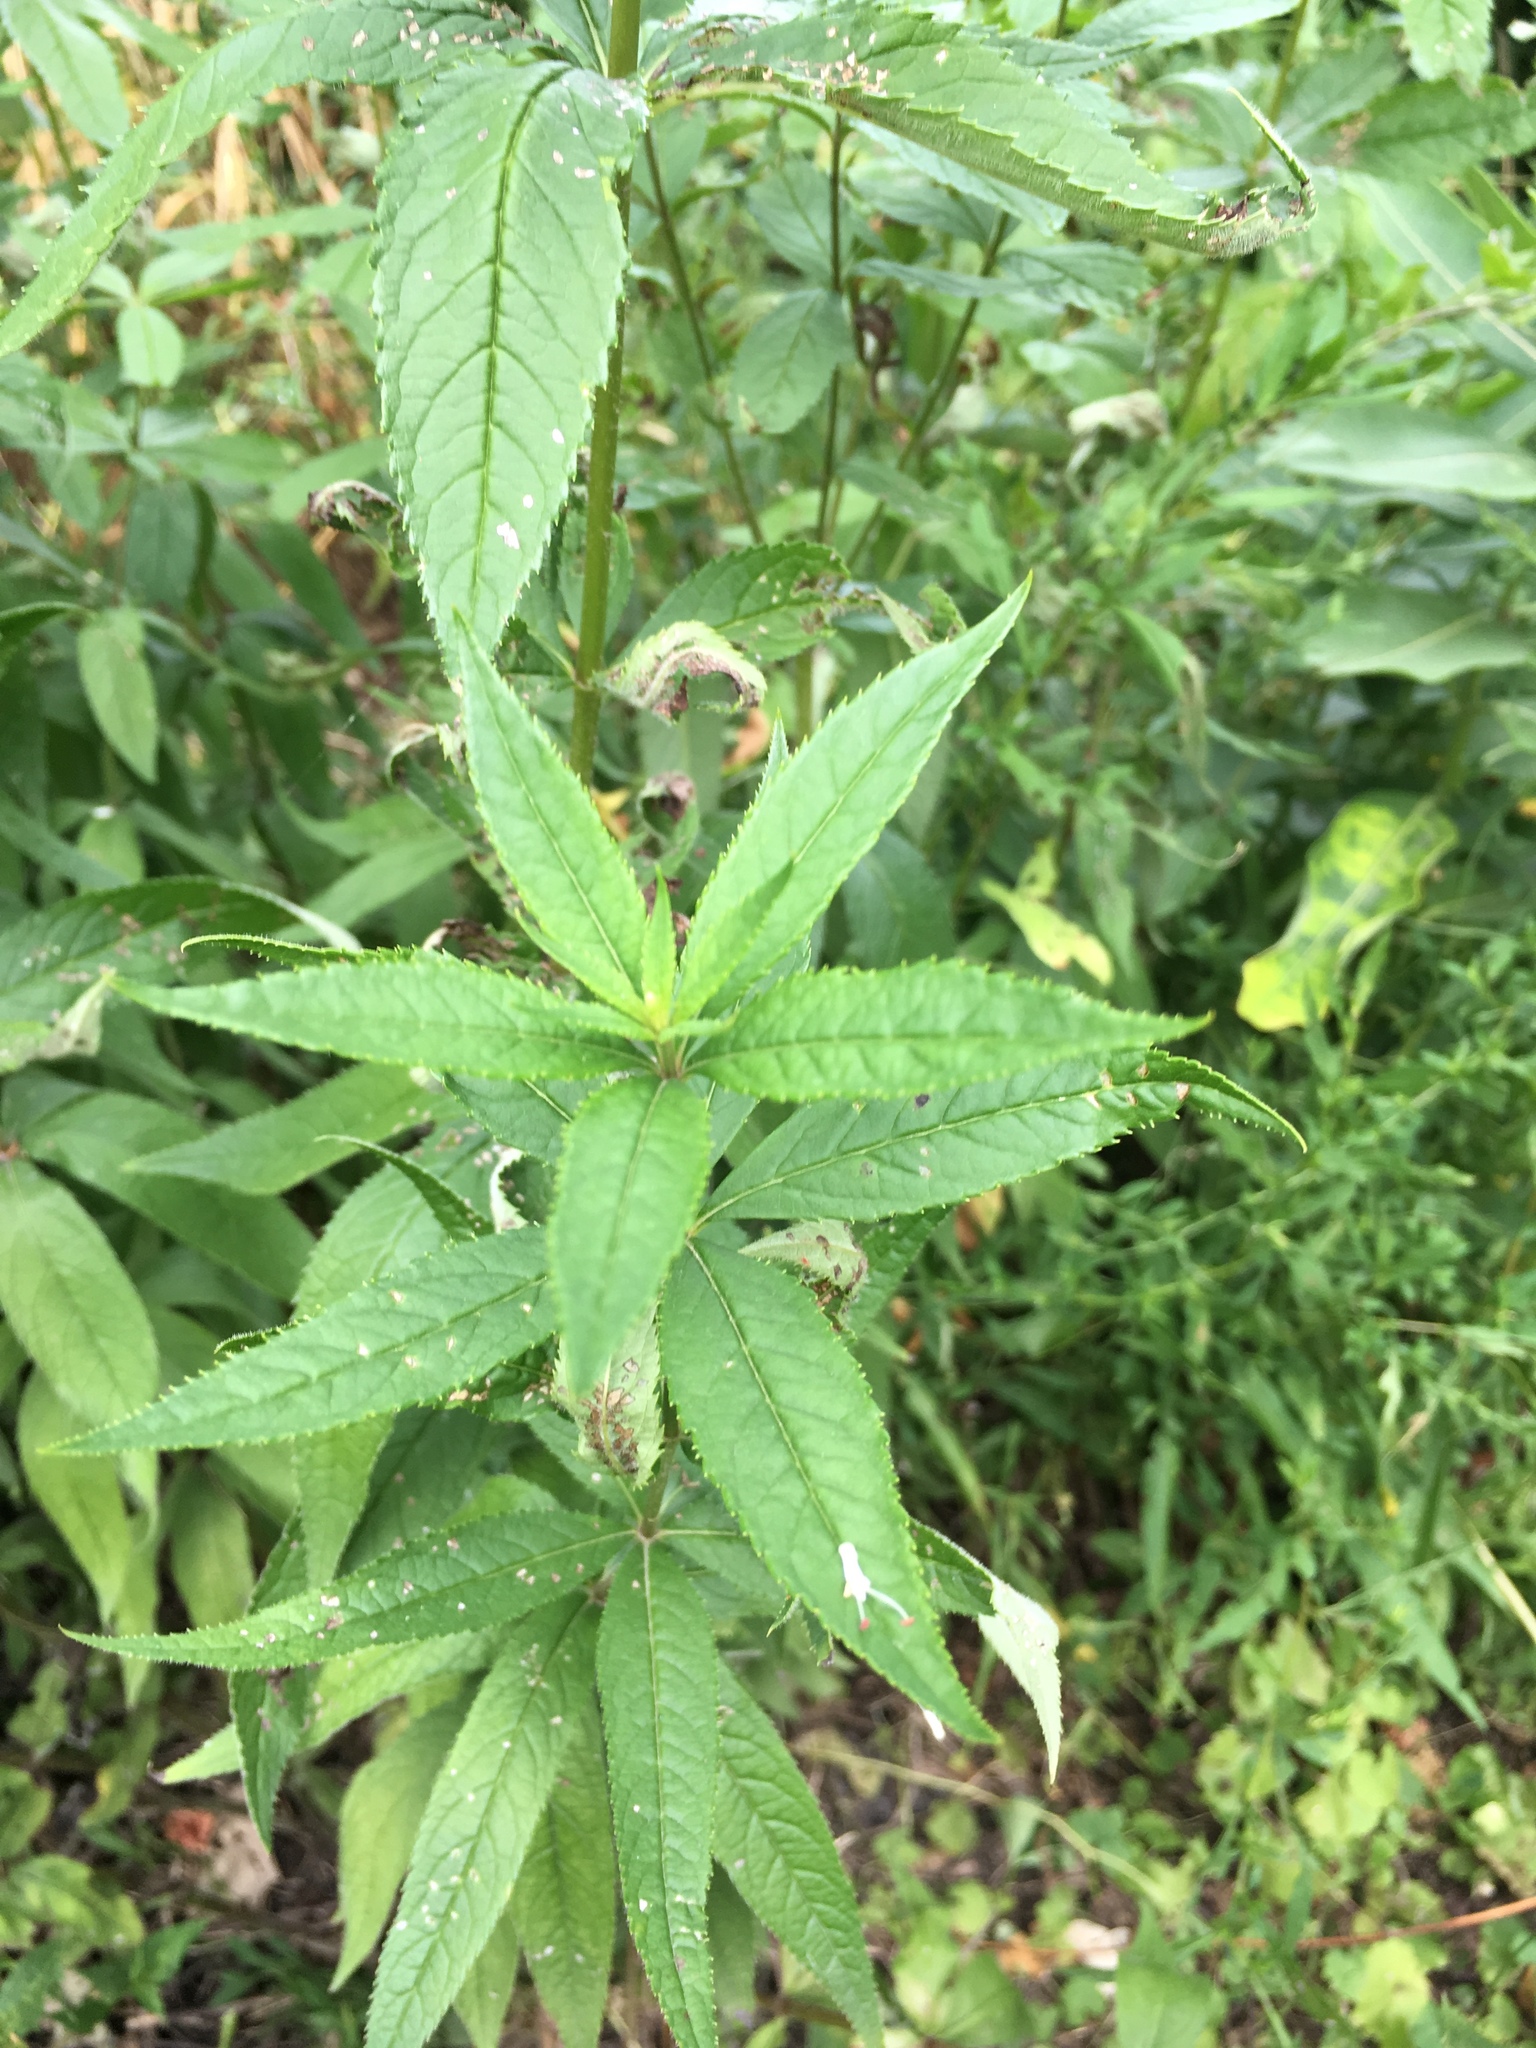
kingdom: Plantae
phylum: Tracheophyta
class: Magnoliopsida
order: Lamiales
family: Plantaginaceae
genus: Veronicastrum
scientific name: Veronicastrum virginicum
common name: Blackroot
